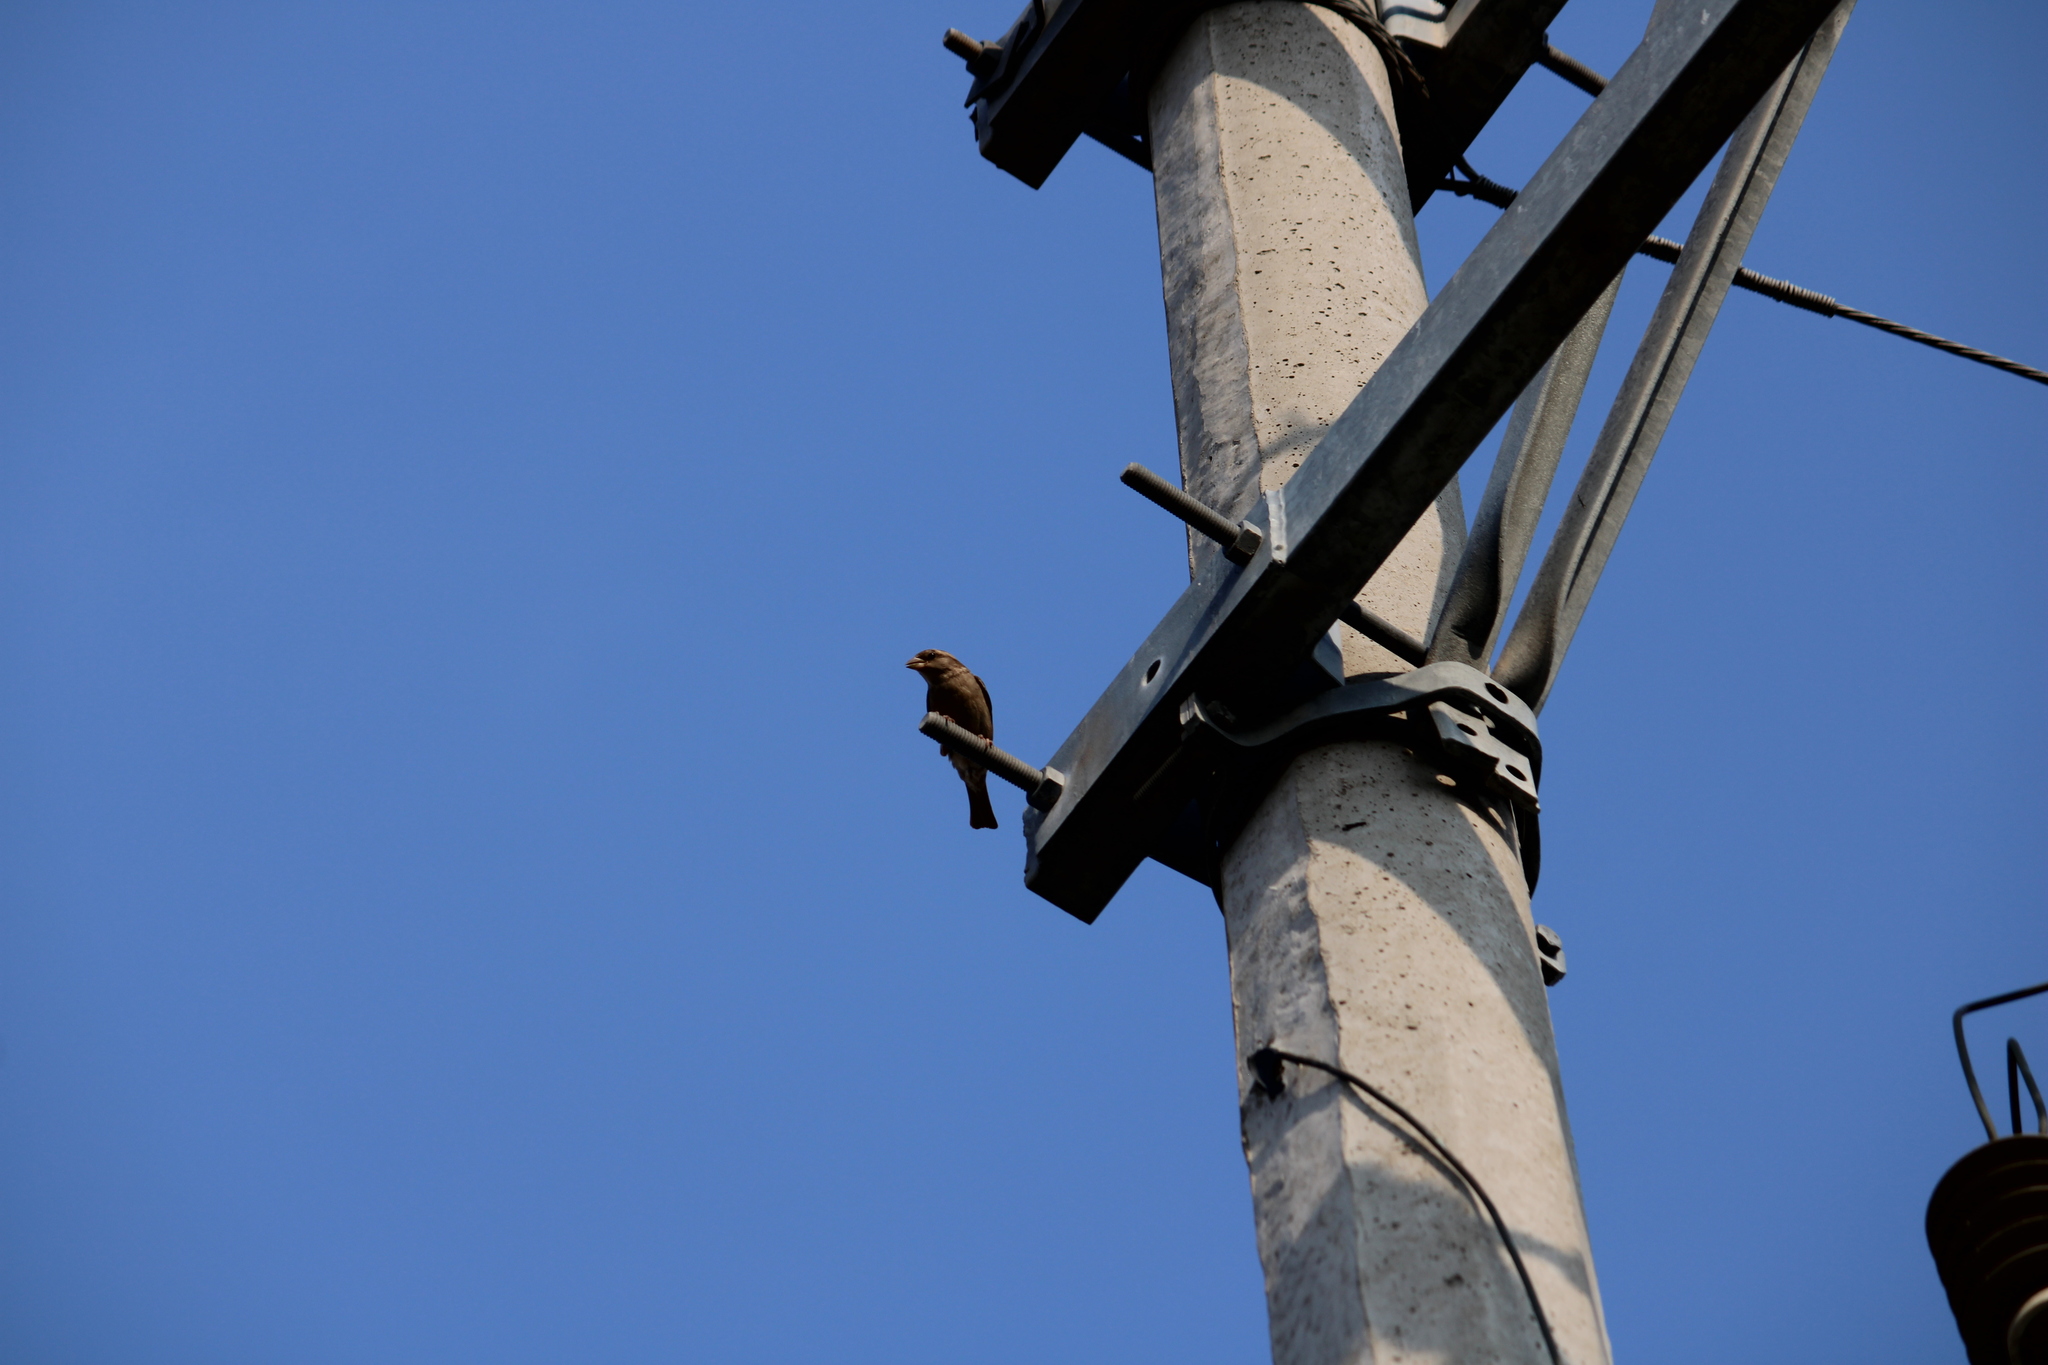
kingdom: Animalia
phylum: Chordata
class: Aves
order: Passeriformes
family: Passeridae
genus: Passer
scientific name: Passer domesticus
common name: House sparrow
